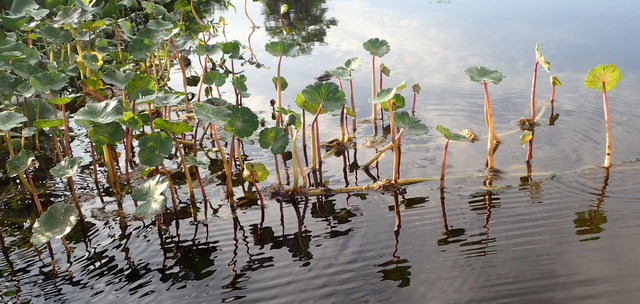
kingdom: Plantae
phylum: Tracheophyta
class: Magnoliopsida
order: Apiales
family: Araliaceae
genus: Hydrocotyle
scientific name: Hydrocotyle ranunculoides
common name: Floating pennywort
